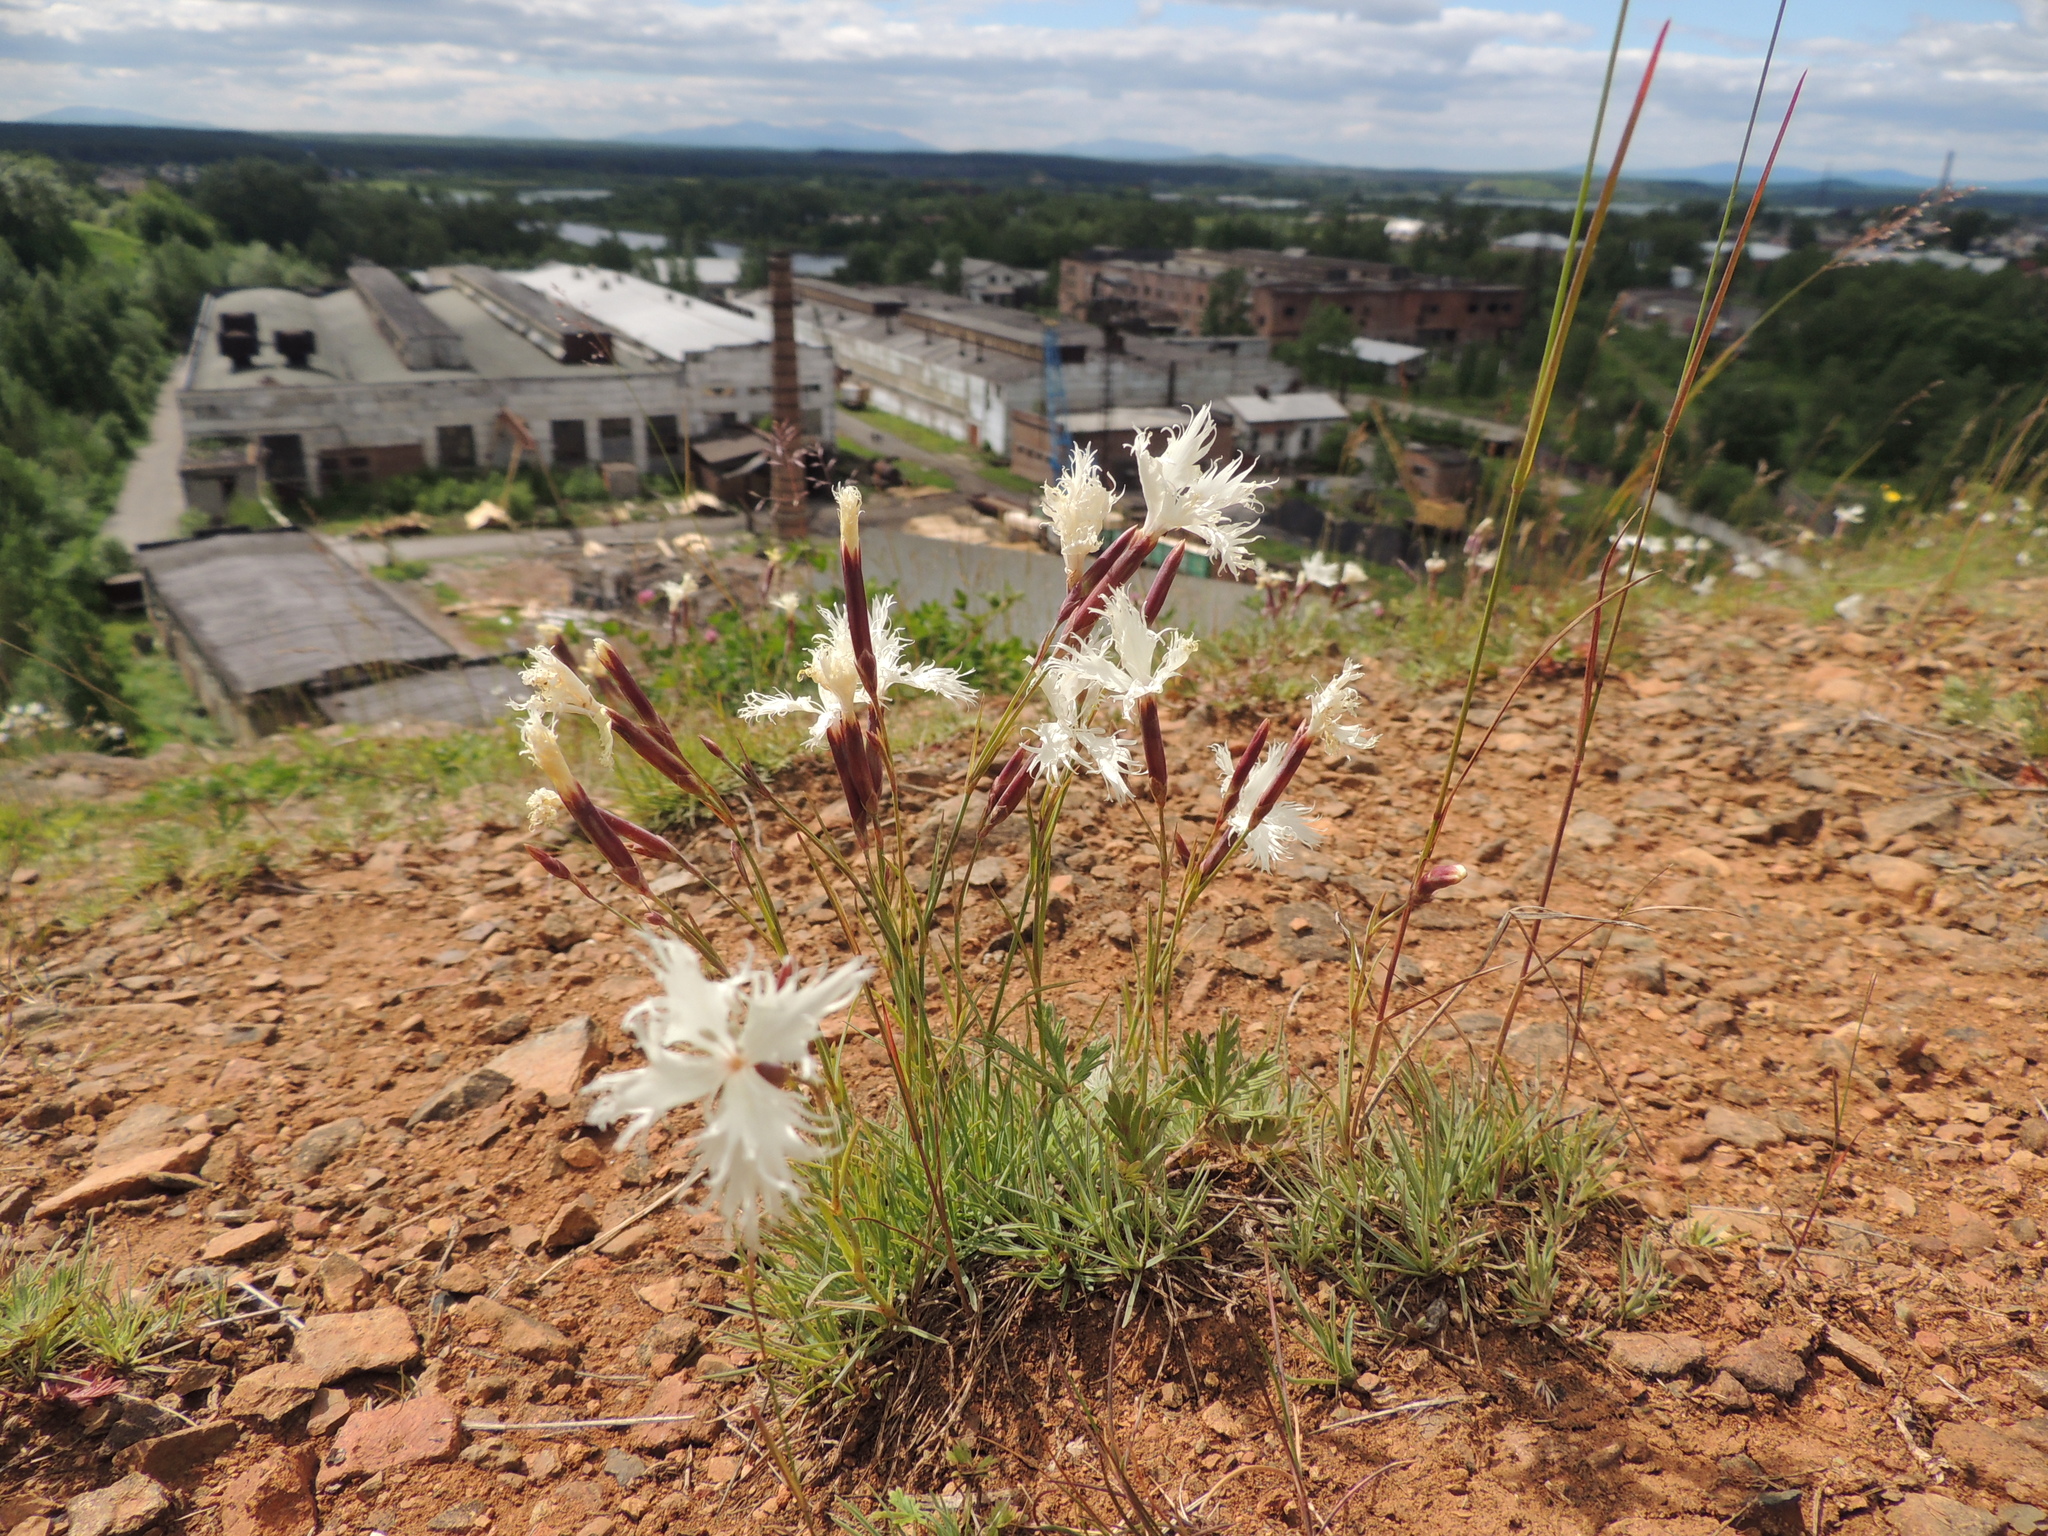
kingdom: Plantae
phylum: Tracheophyta
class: Magnoliopsida
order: Caryophyllales
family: Caryophyllaceae
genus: Dianthus
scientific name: Dianthus acicularis
